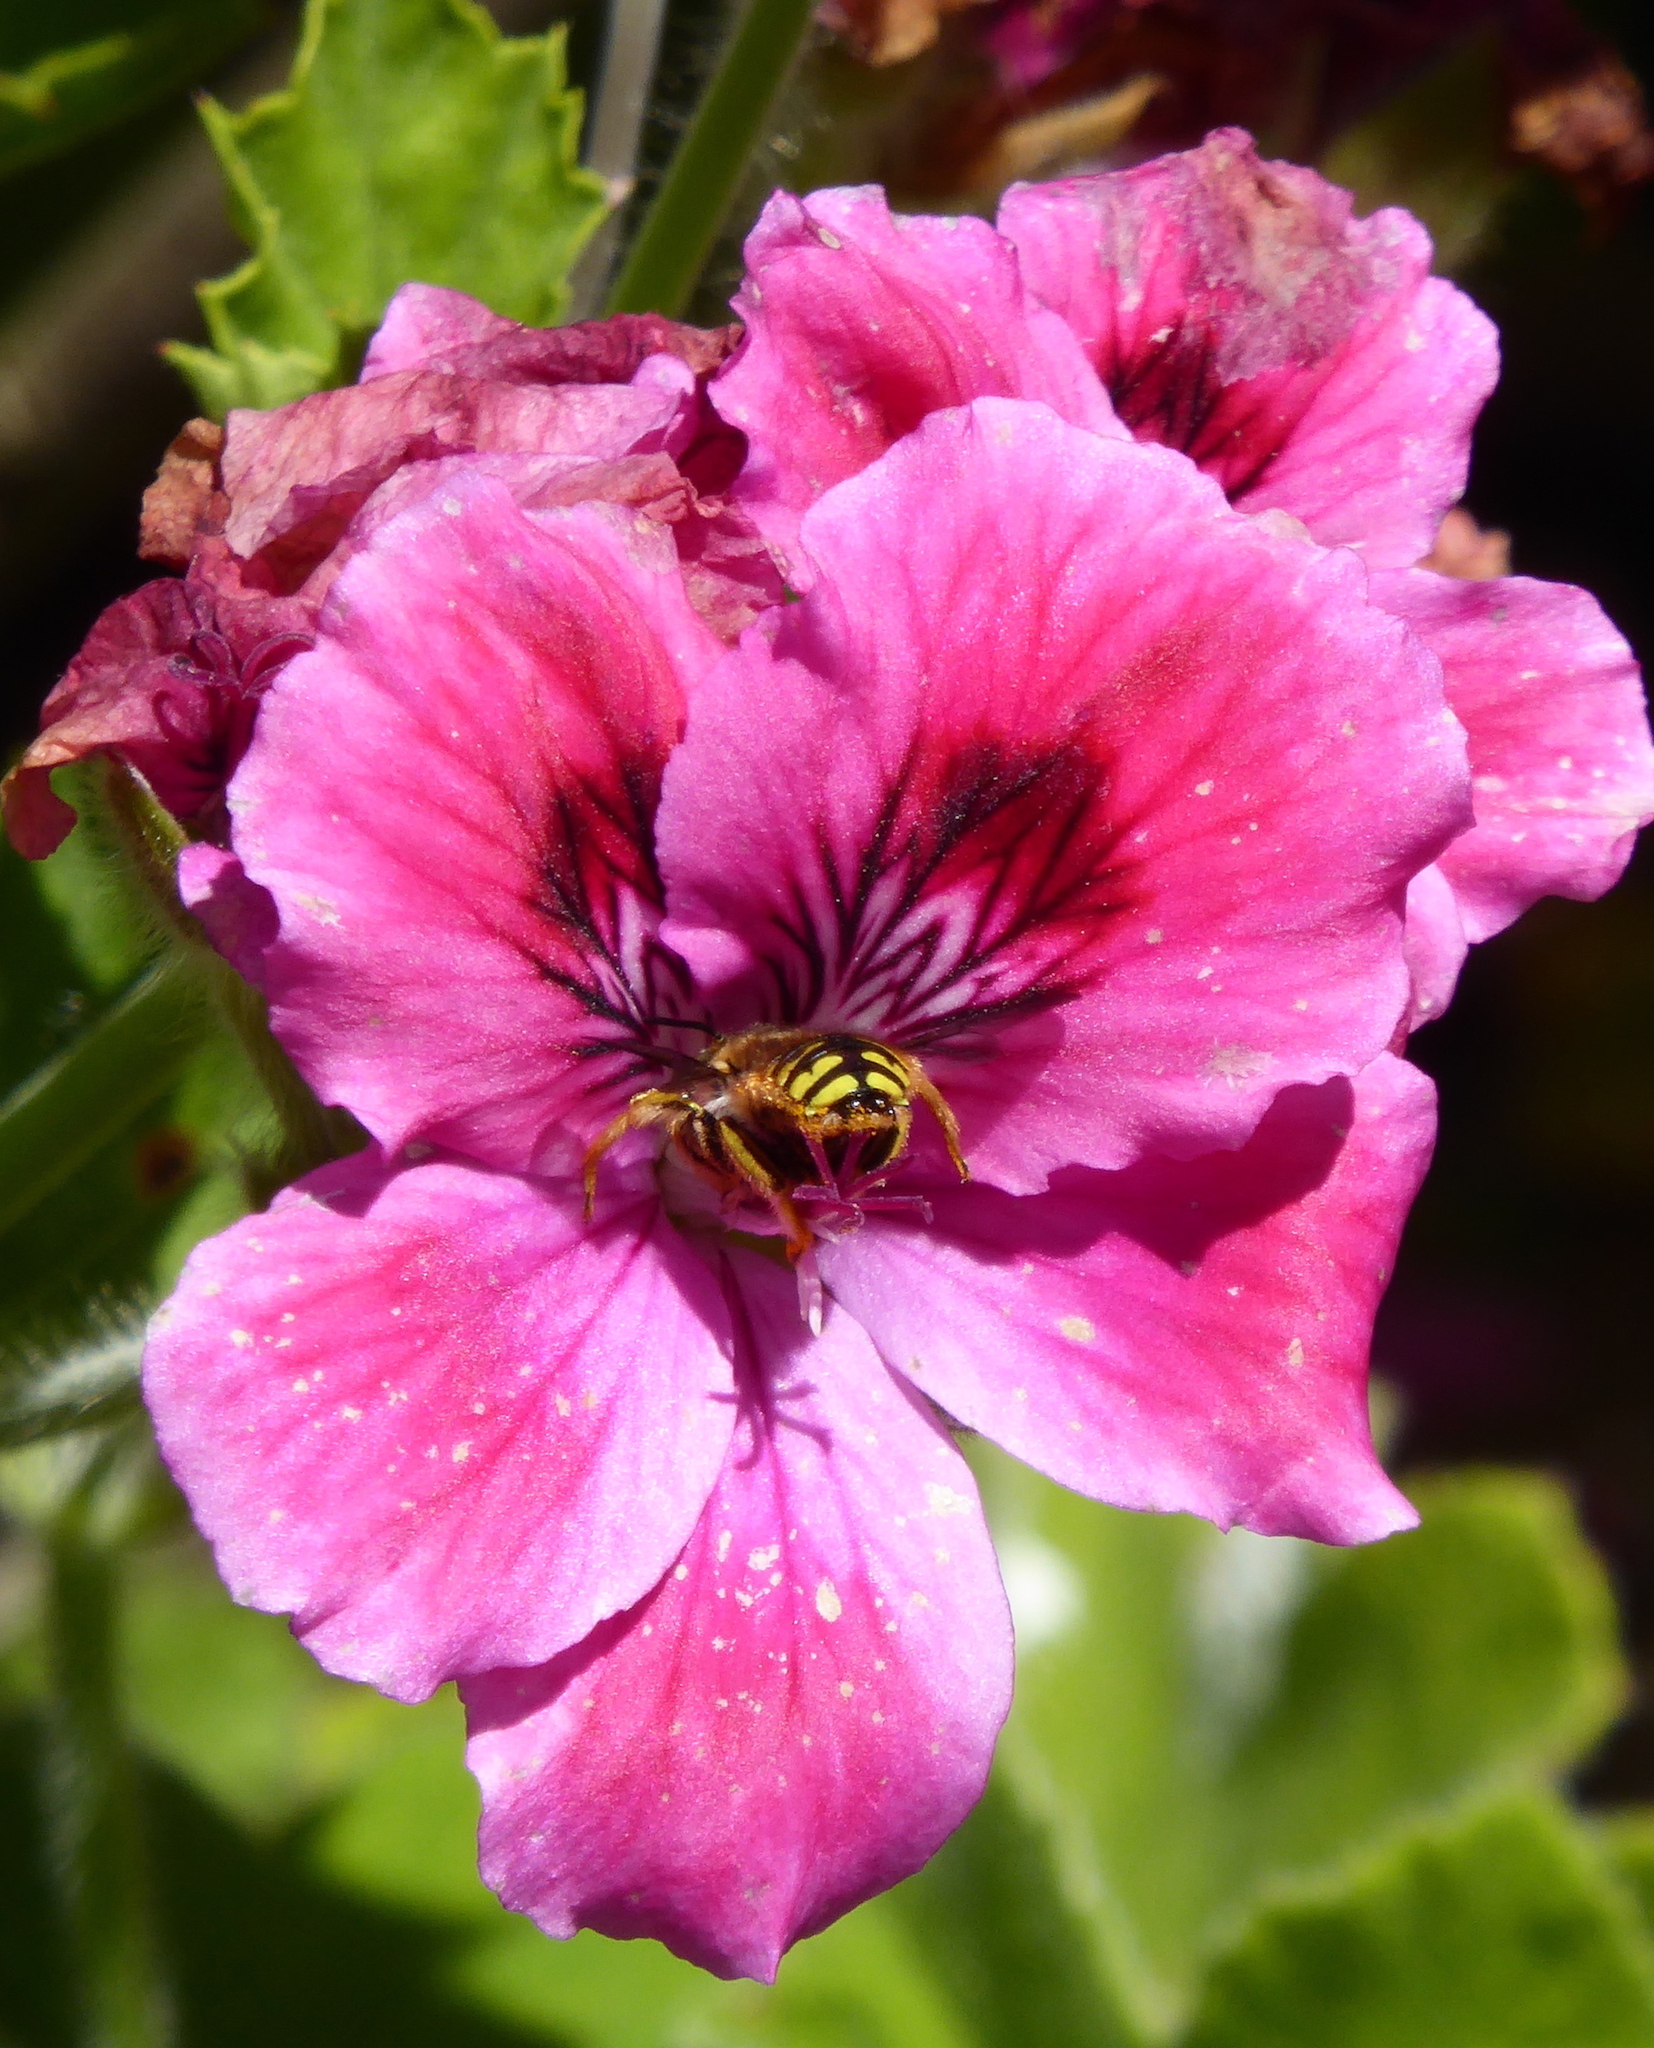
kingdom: Animalia
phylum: Arthropoda
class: Insecta
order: Hymenoptera
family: Megachilidae
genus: Anthidium
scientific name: Anthidium manicatum
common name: Wool carder bee
